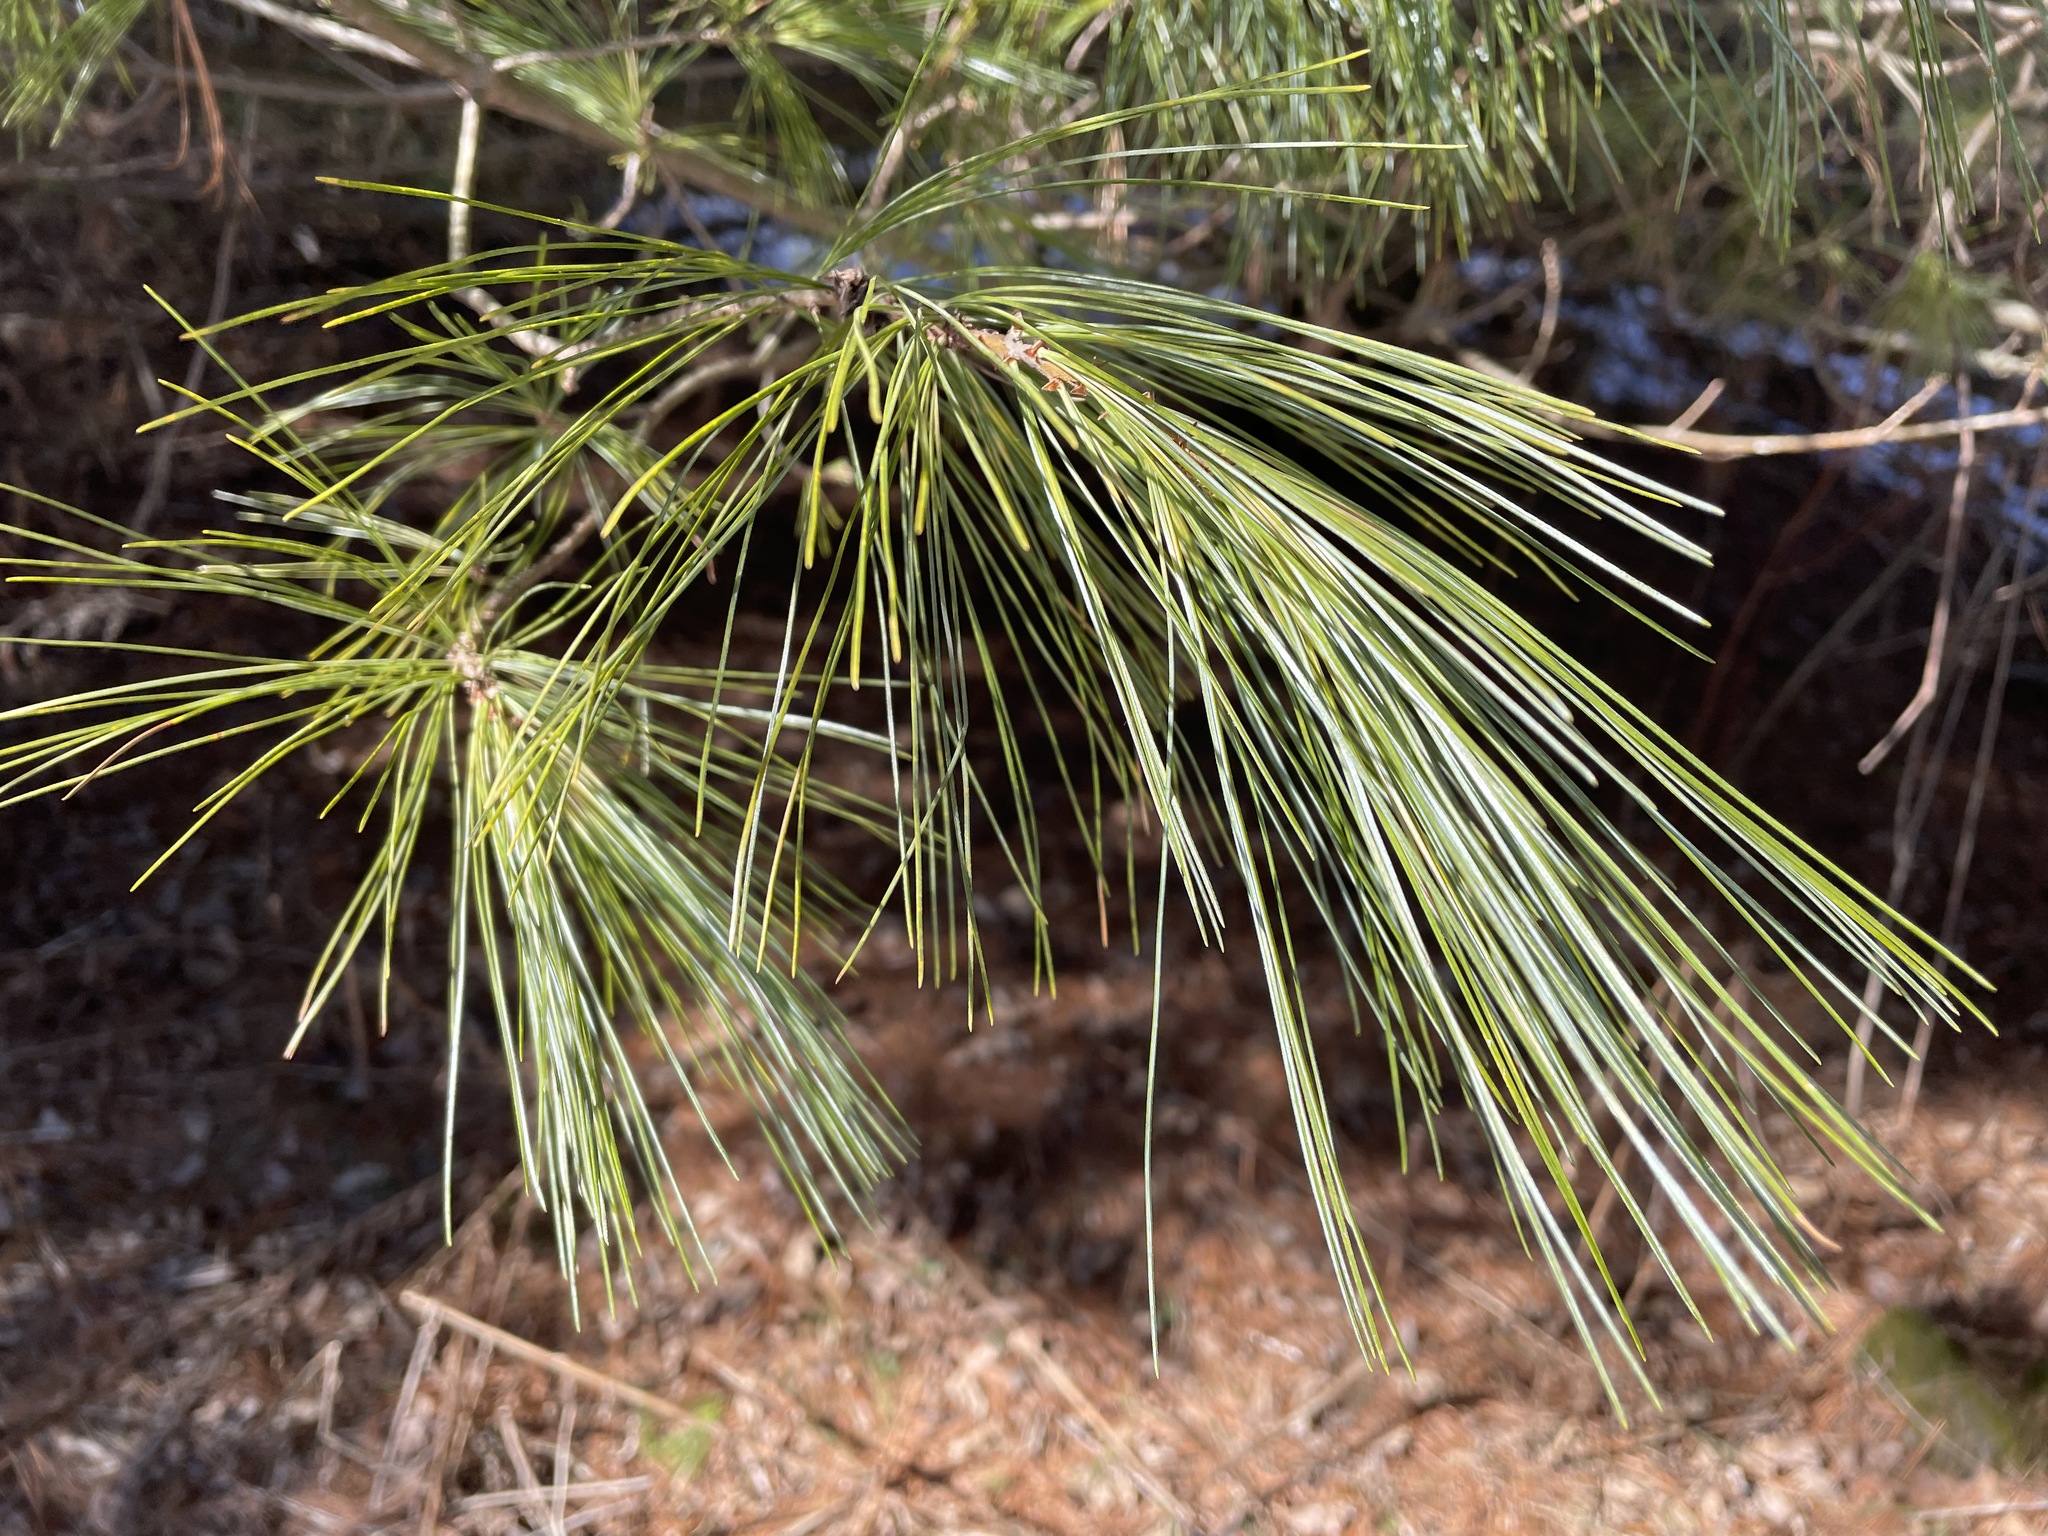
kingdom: Plantae
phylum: Tracheophyta
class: Pinopsida
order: Pinales
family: Pinaceae
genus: Pinus
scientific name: Pinus strobus
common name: Weymouth pine
